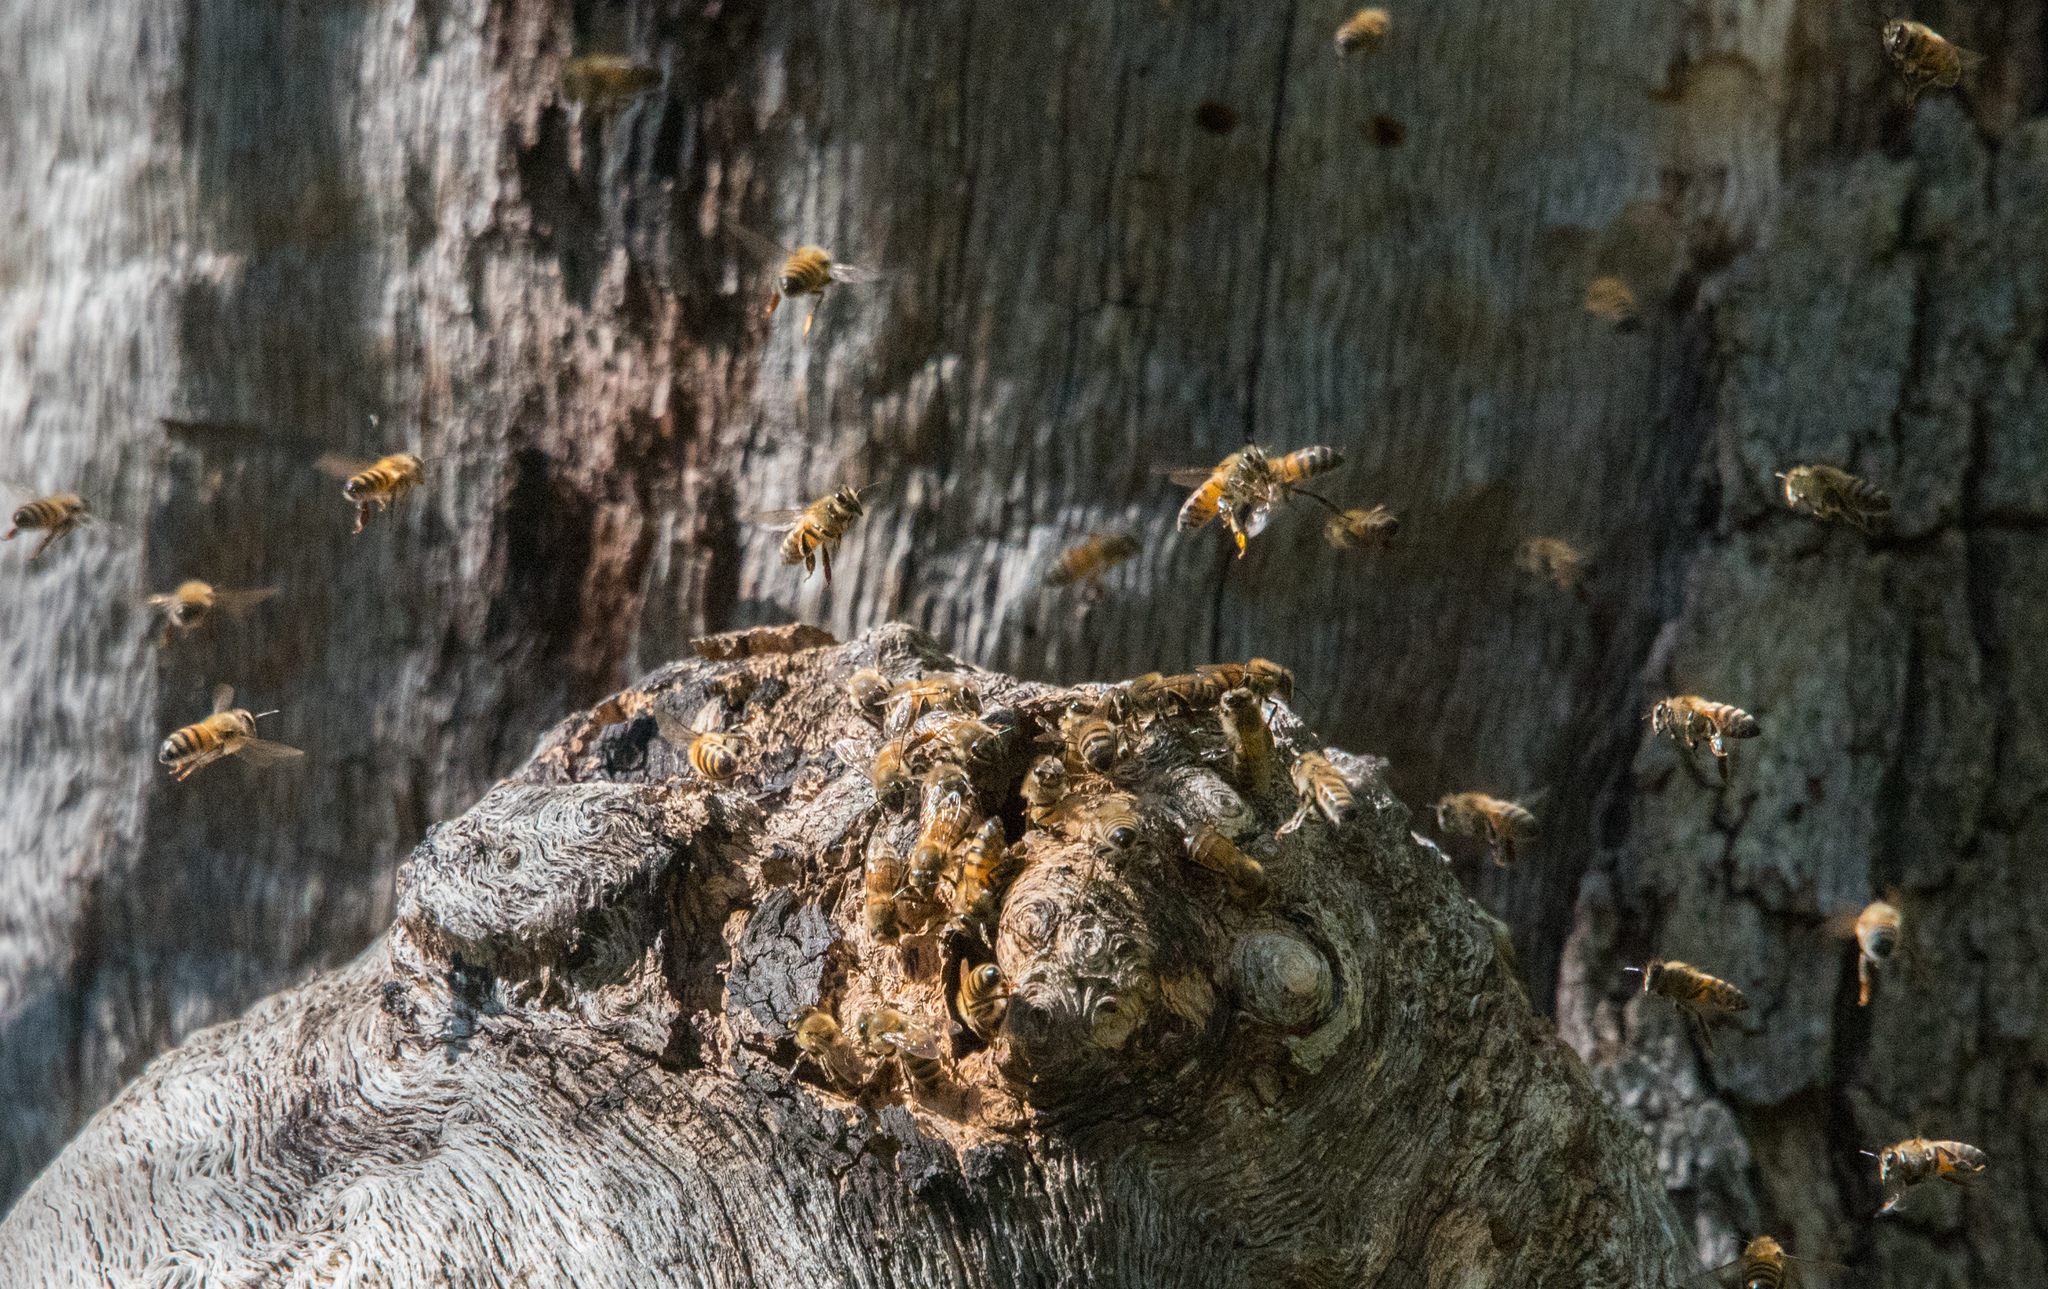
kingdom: Animalia
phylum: Arthropoda
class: Insecta
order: Hymenoptera
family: Apidae
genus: Apis
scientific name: Apis mellifera
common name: Honey bee
